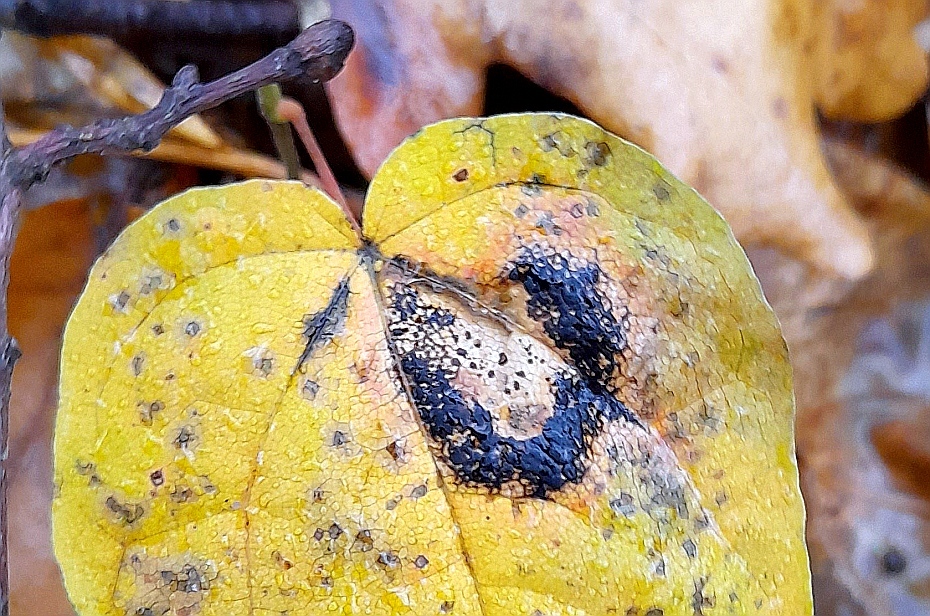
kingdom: Fungi
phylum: Ascomycota
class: Leotiomycetes
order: Rhytismatales
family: Rhytismataceae
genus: Rhytisma
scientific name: Rhytisma acerinum
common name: European tar spot
